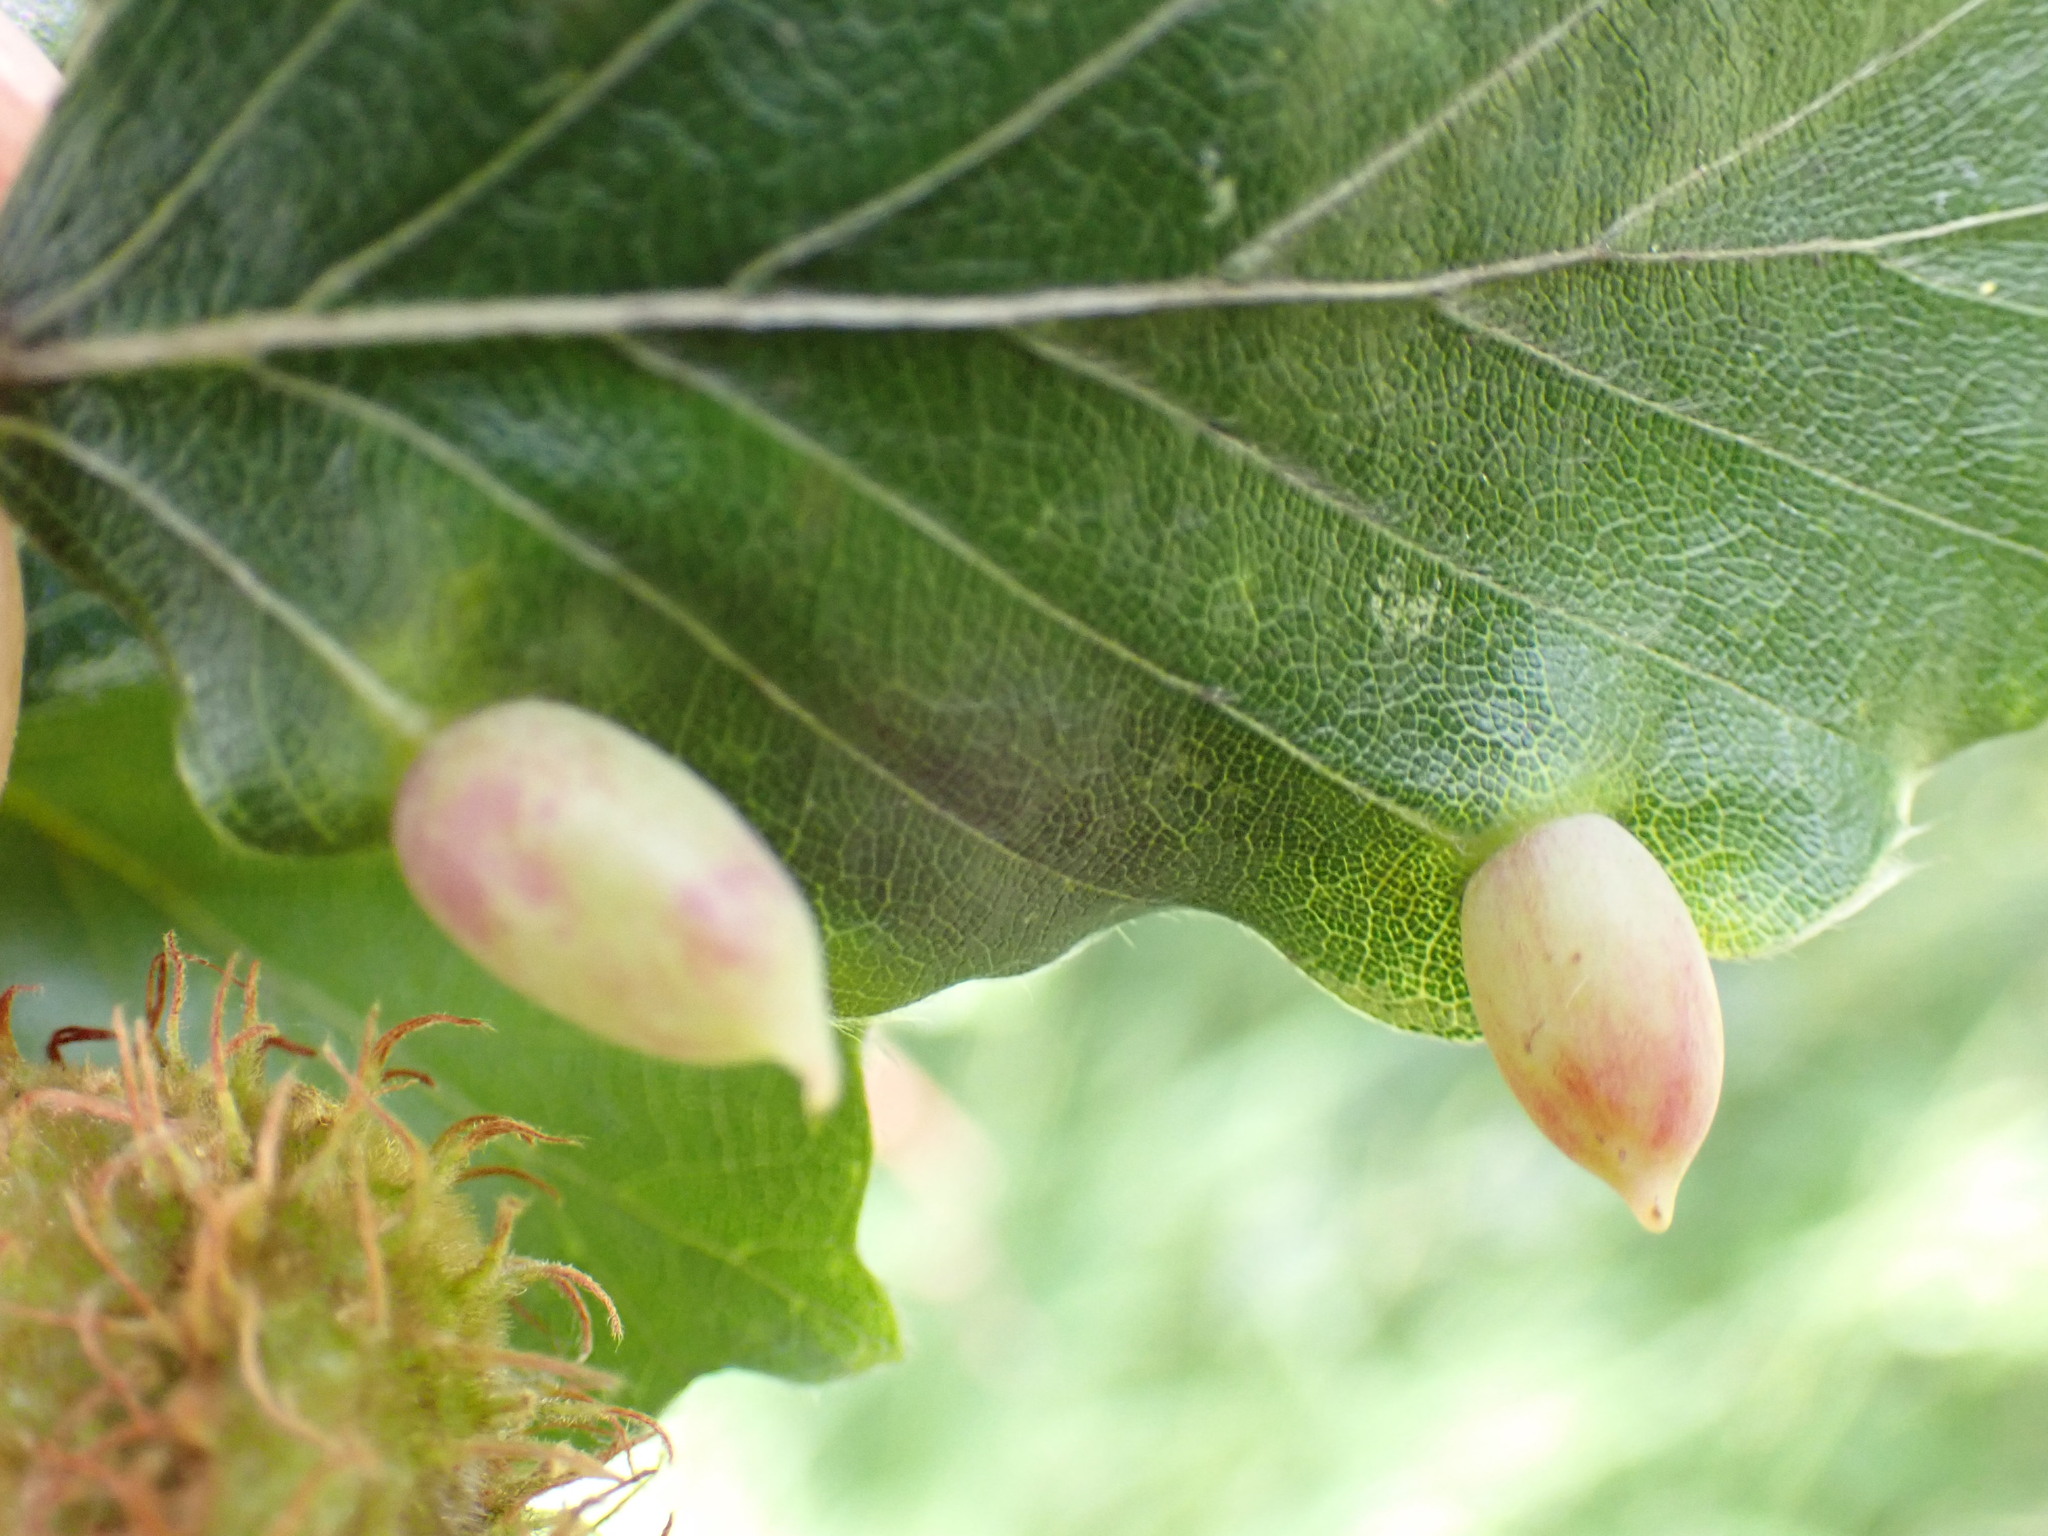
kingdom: Animalia
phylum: Arthropoda
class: Insecta
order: Diptera
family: Cecidomyiidae
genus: Mikiola
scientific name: Mikiola fagi
